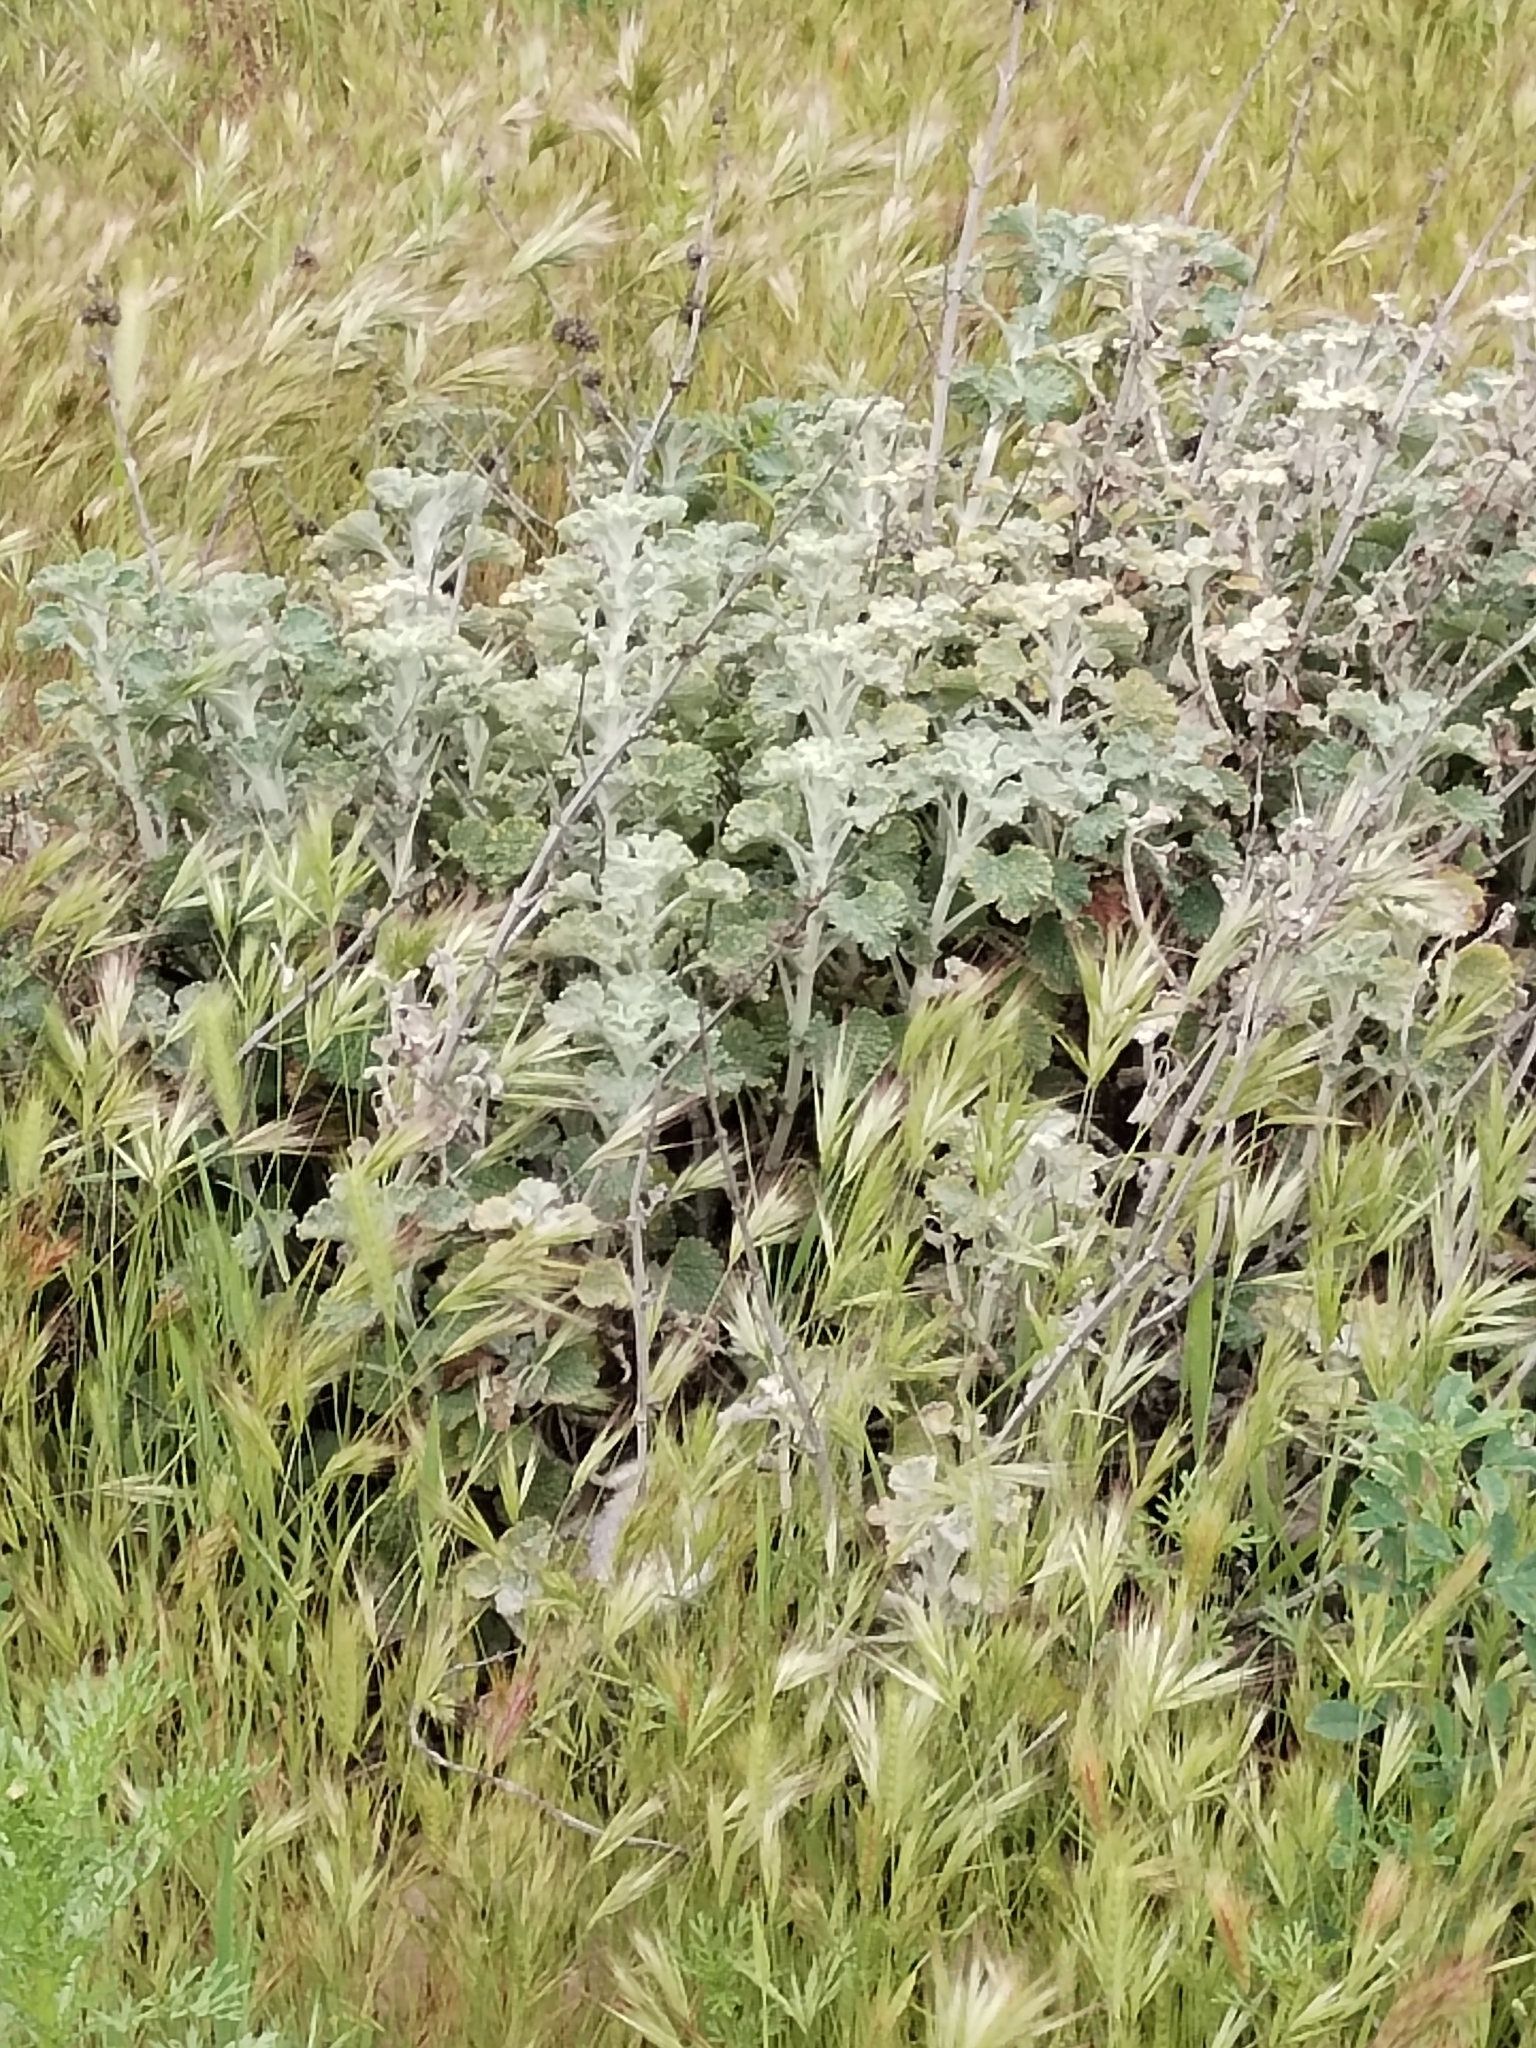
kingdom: Plantae
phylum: Tracheophyta
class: Magnoliopsida
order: Lamiales
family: Lamiaceae
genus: Marrubium
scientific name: Marrubium vulgare
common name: Horehound
